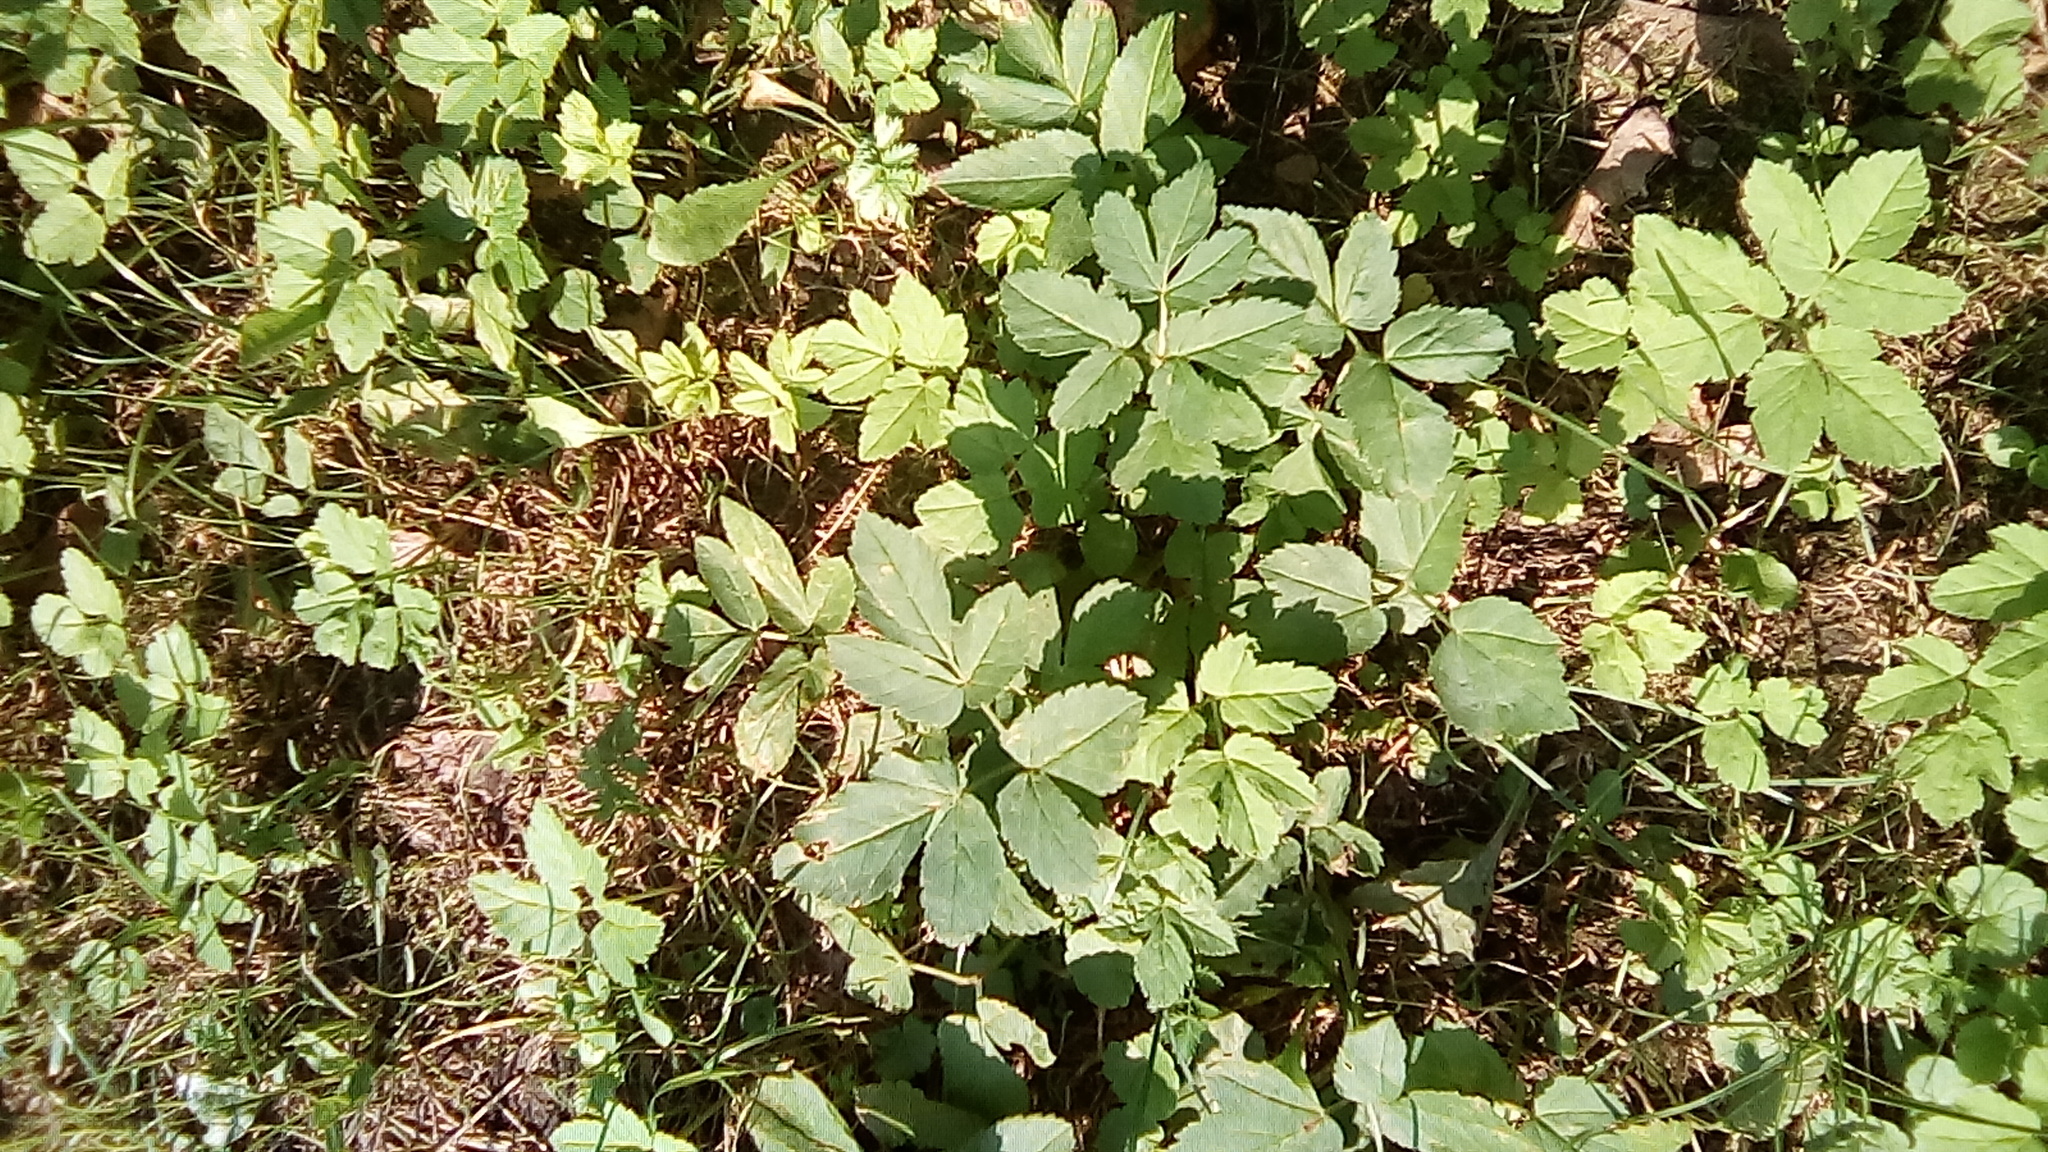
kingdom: Plantae
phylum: Tracheophyta
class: Magnoliopsida
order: Apiales
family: Apiaceae
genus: Aegopodium
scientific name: Aegopodium podagraria
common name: Ground-elder
